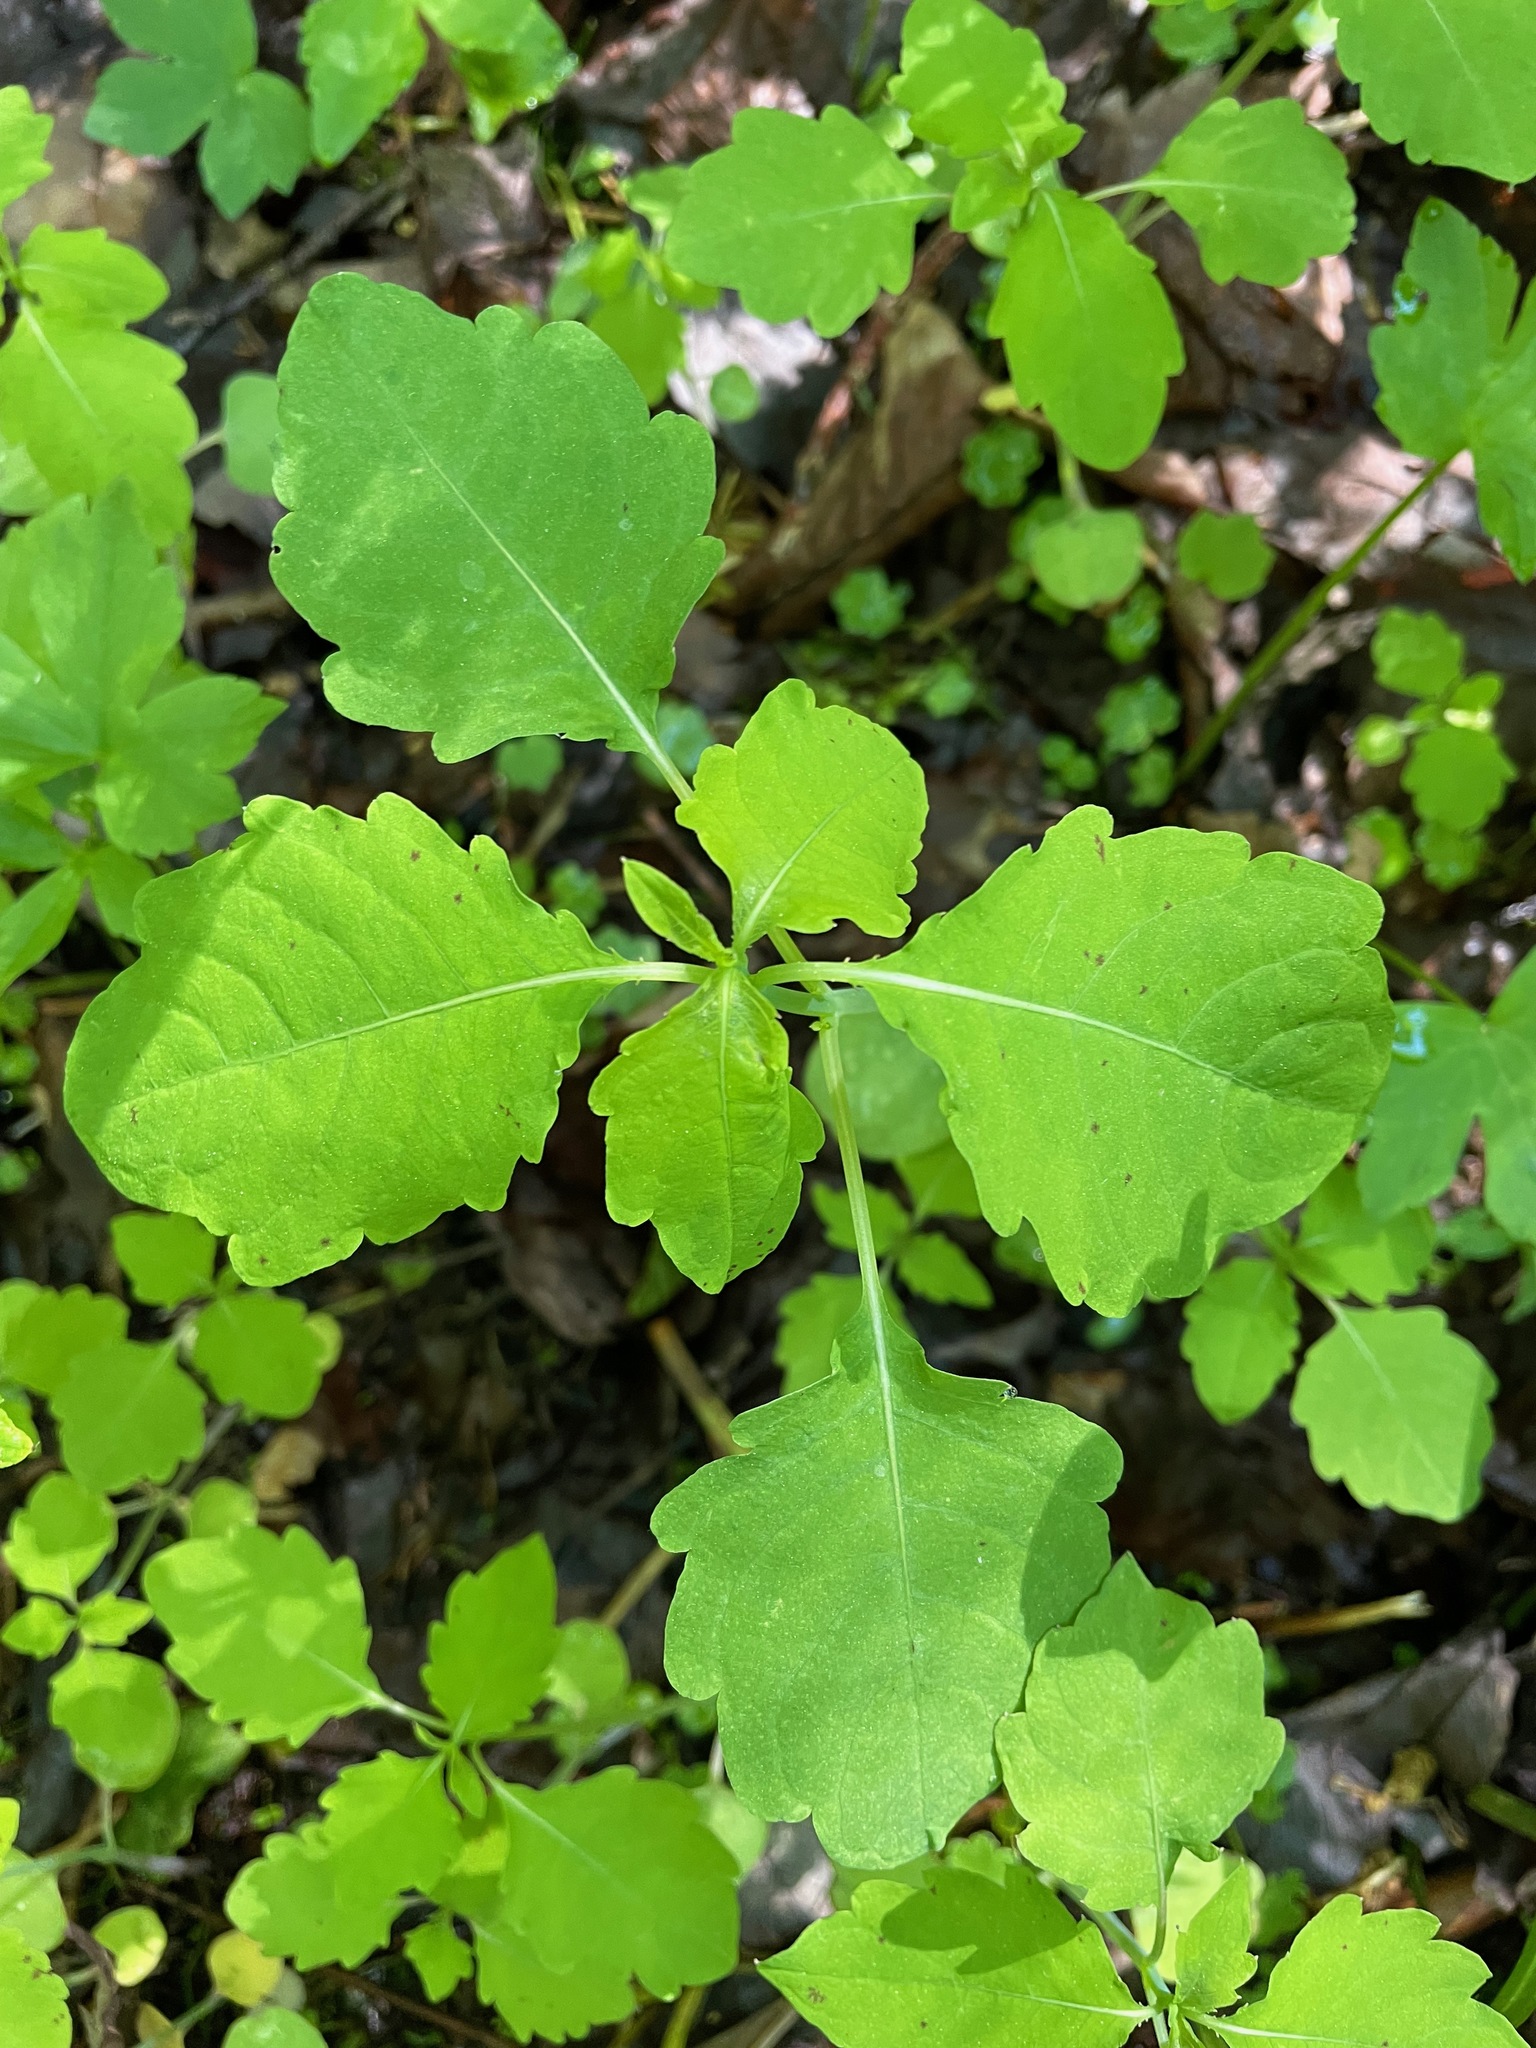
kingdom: Plantae
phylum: Tracheophyta
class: Magnoliopsida
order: Ericales
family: Balsaminaceae
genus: Impatiens
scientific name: Impatiens
